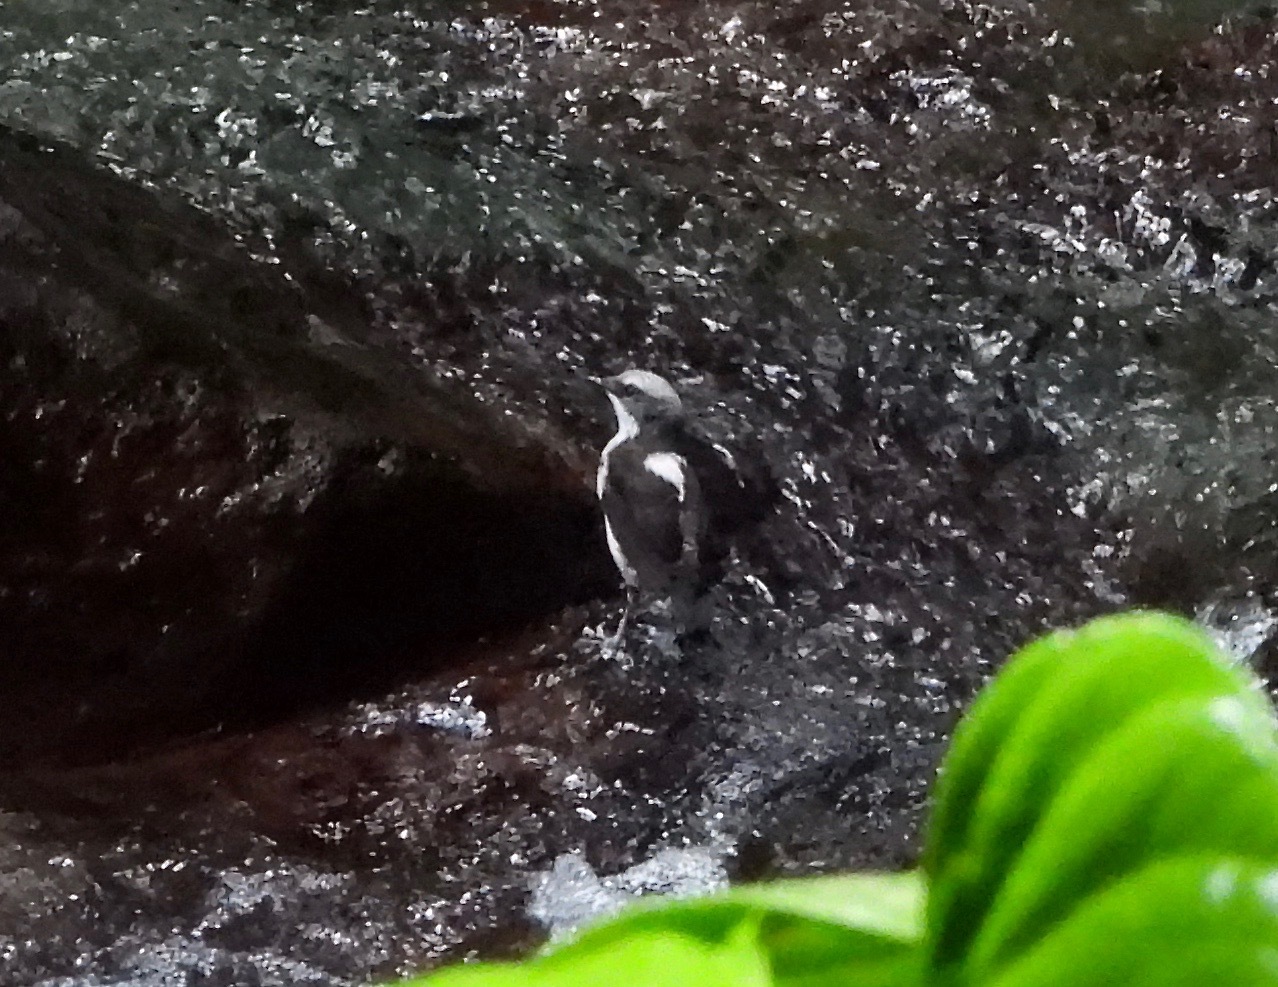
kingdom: Animalia
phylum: Chordata
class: Aves
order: Passeriformes
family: Cinclidae
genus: Cinclus
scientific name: Cinclus leucocephalus
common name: White-capped dipper
